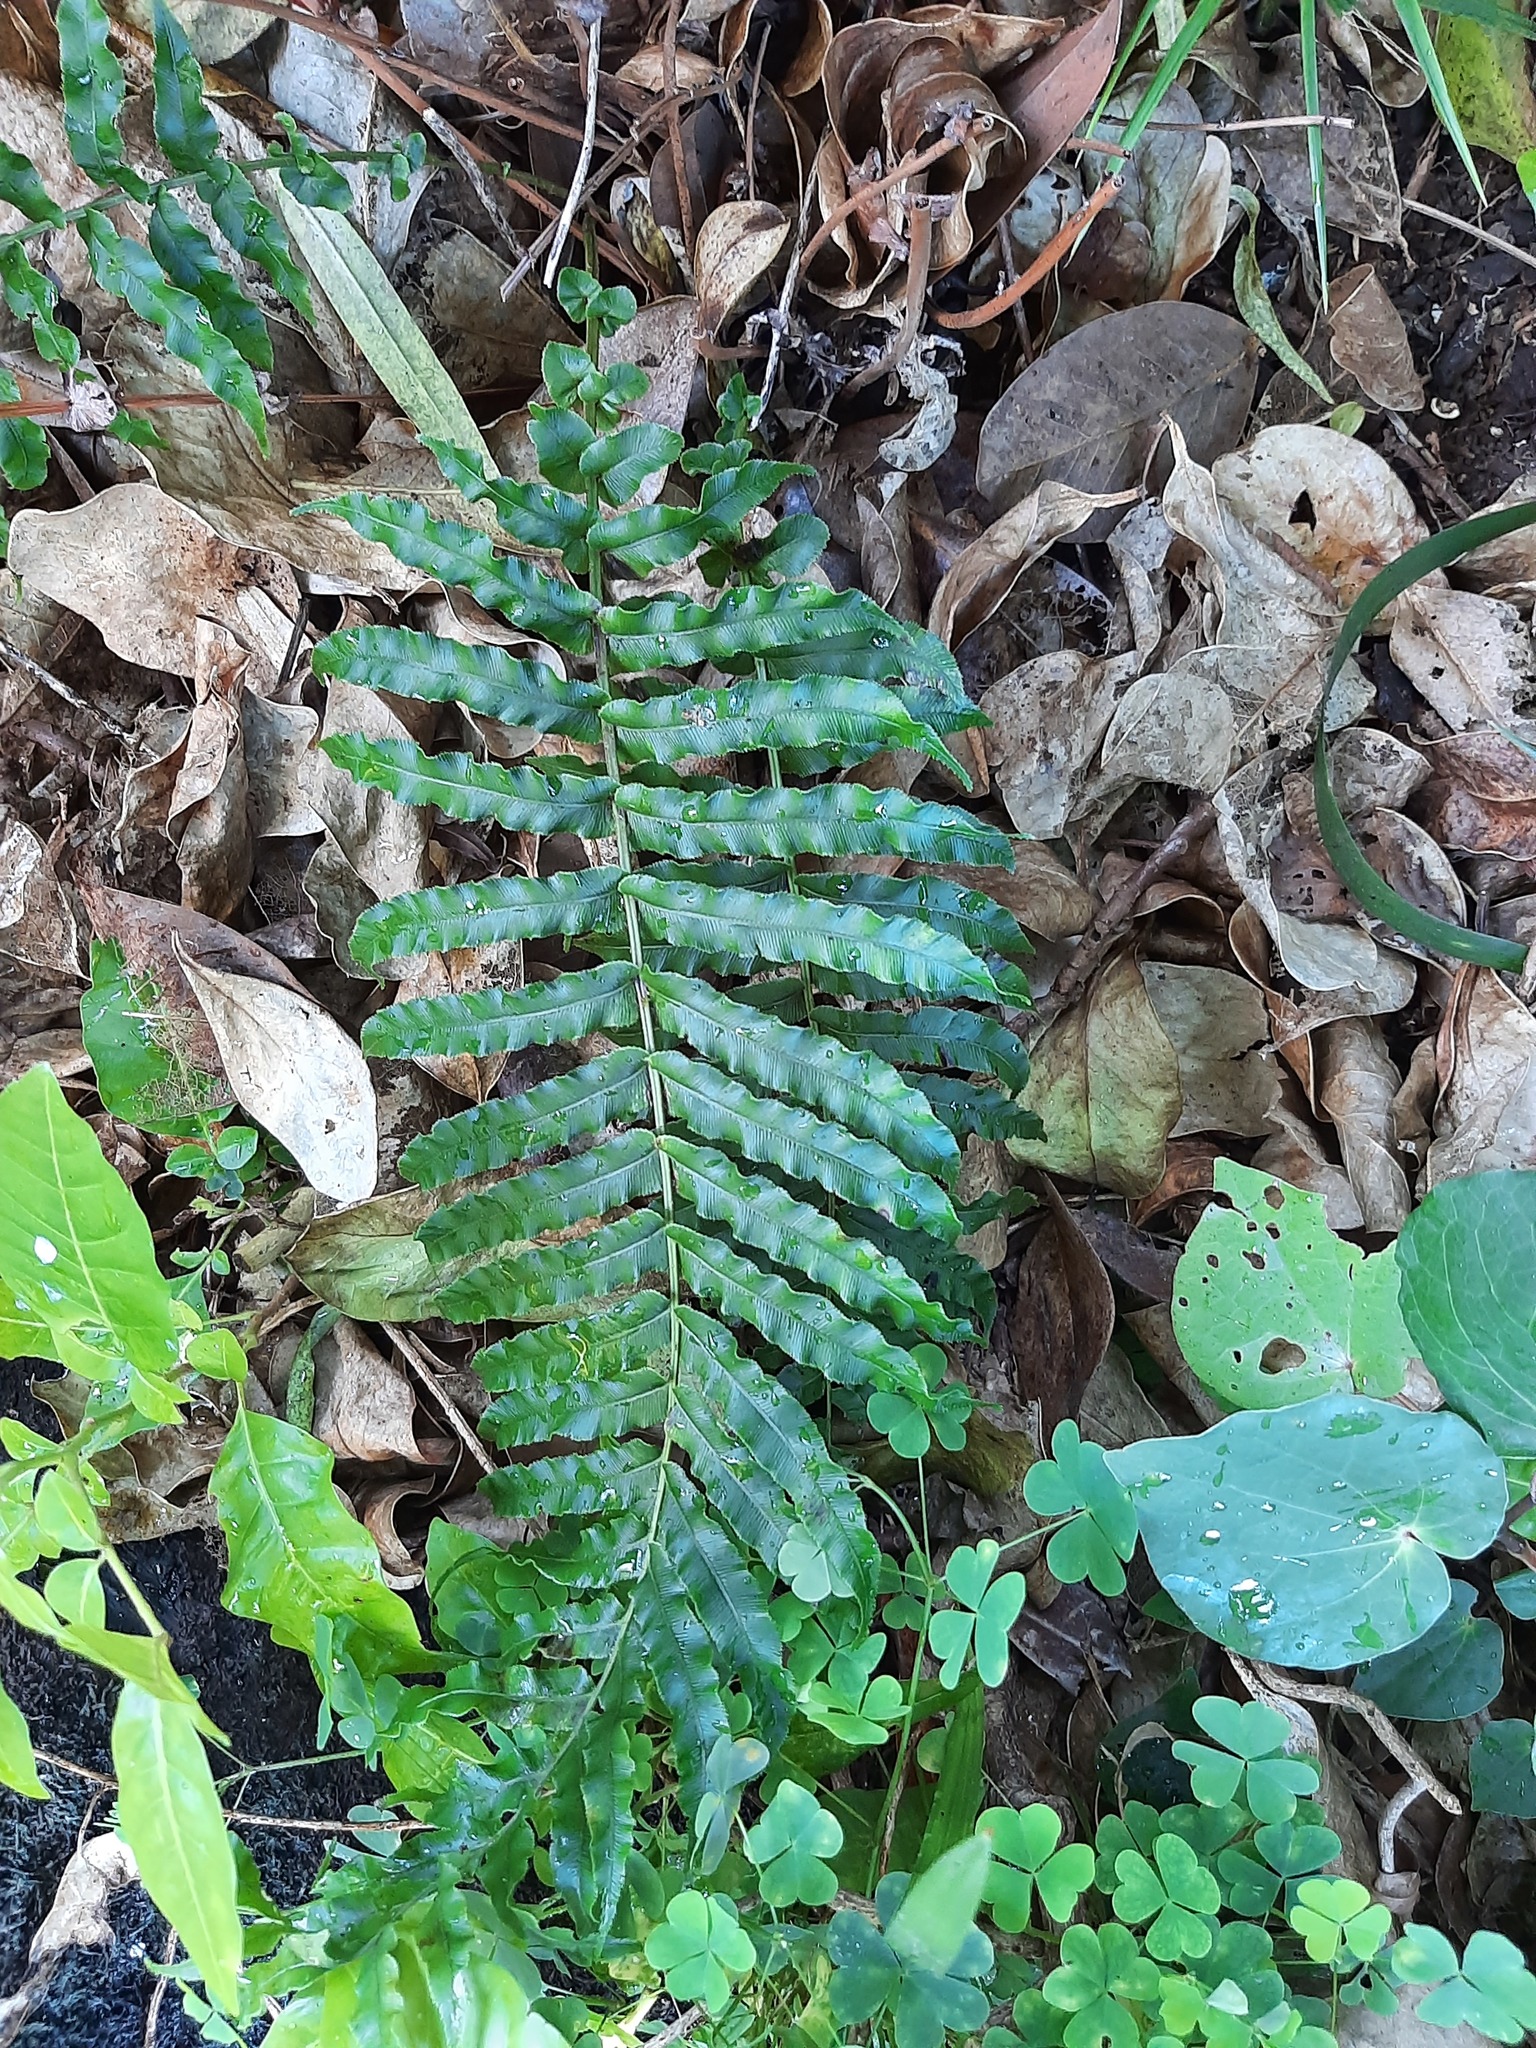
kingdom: Plantae
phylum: Tracheophyta
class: Polypodiopsida
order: Polypodiales
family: Blechnaceae
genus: Parablechnum
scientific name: Parablechnum novae-zelandiae
